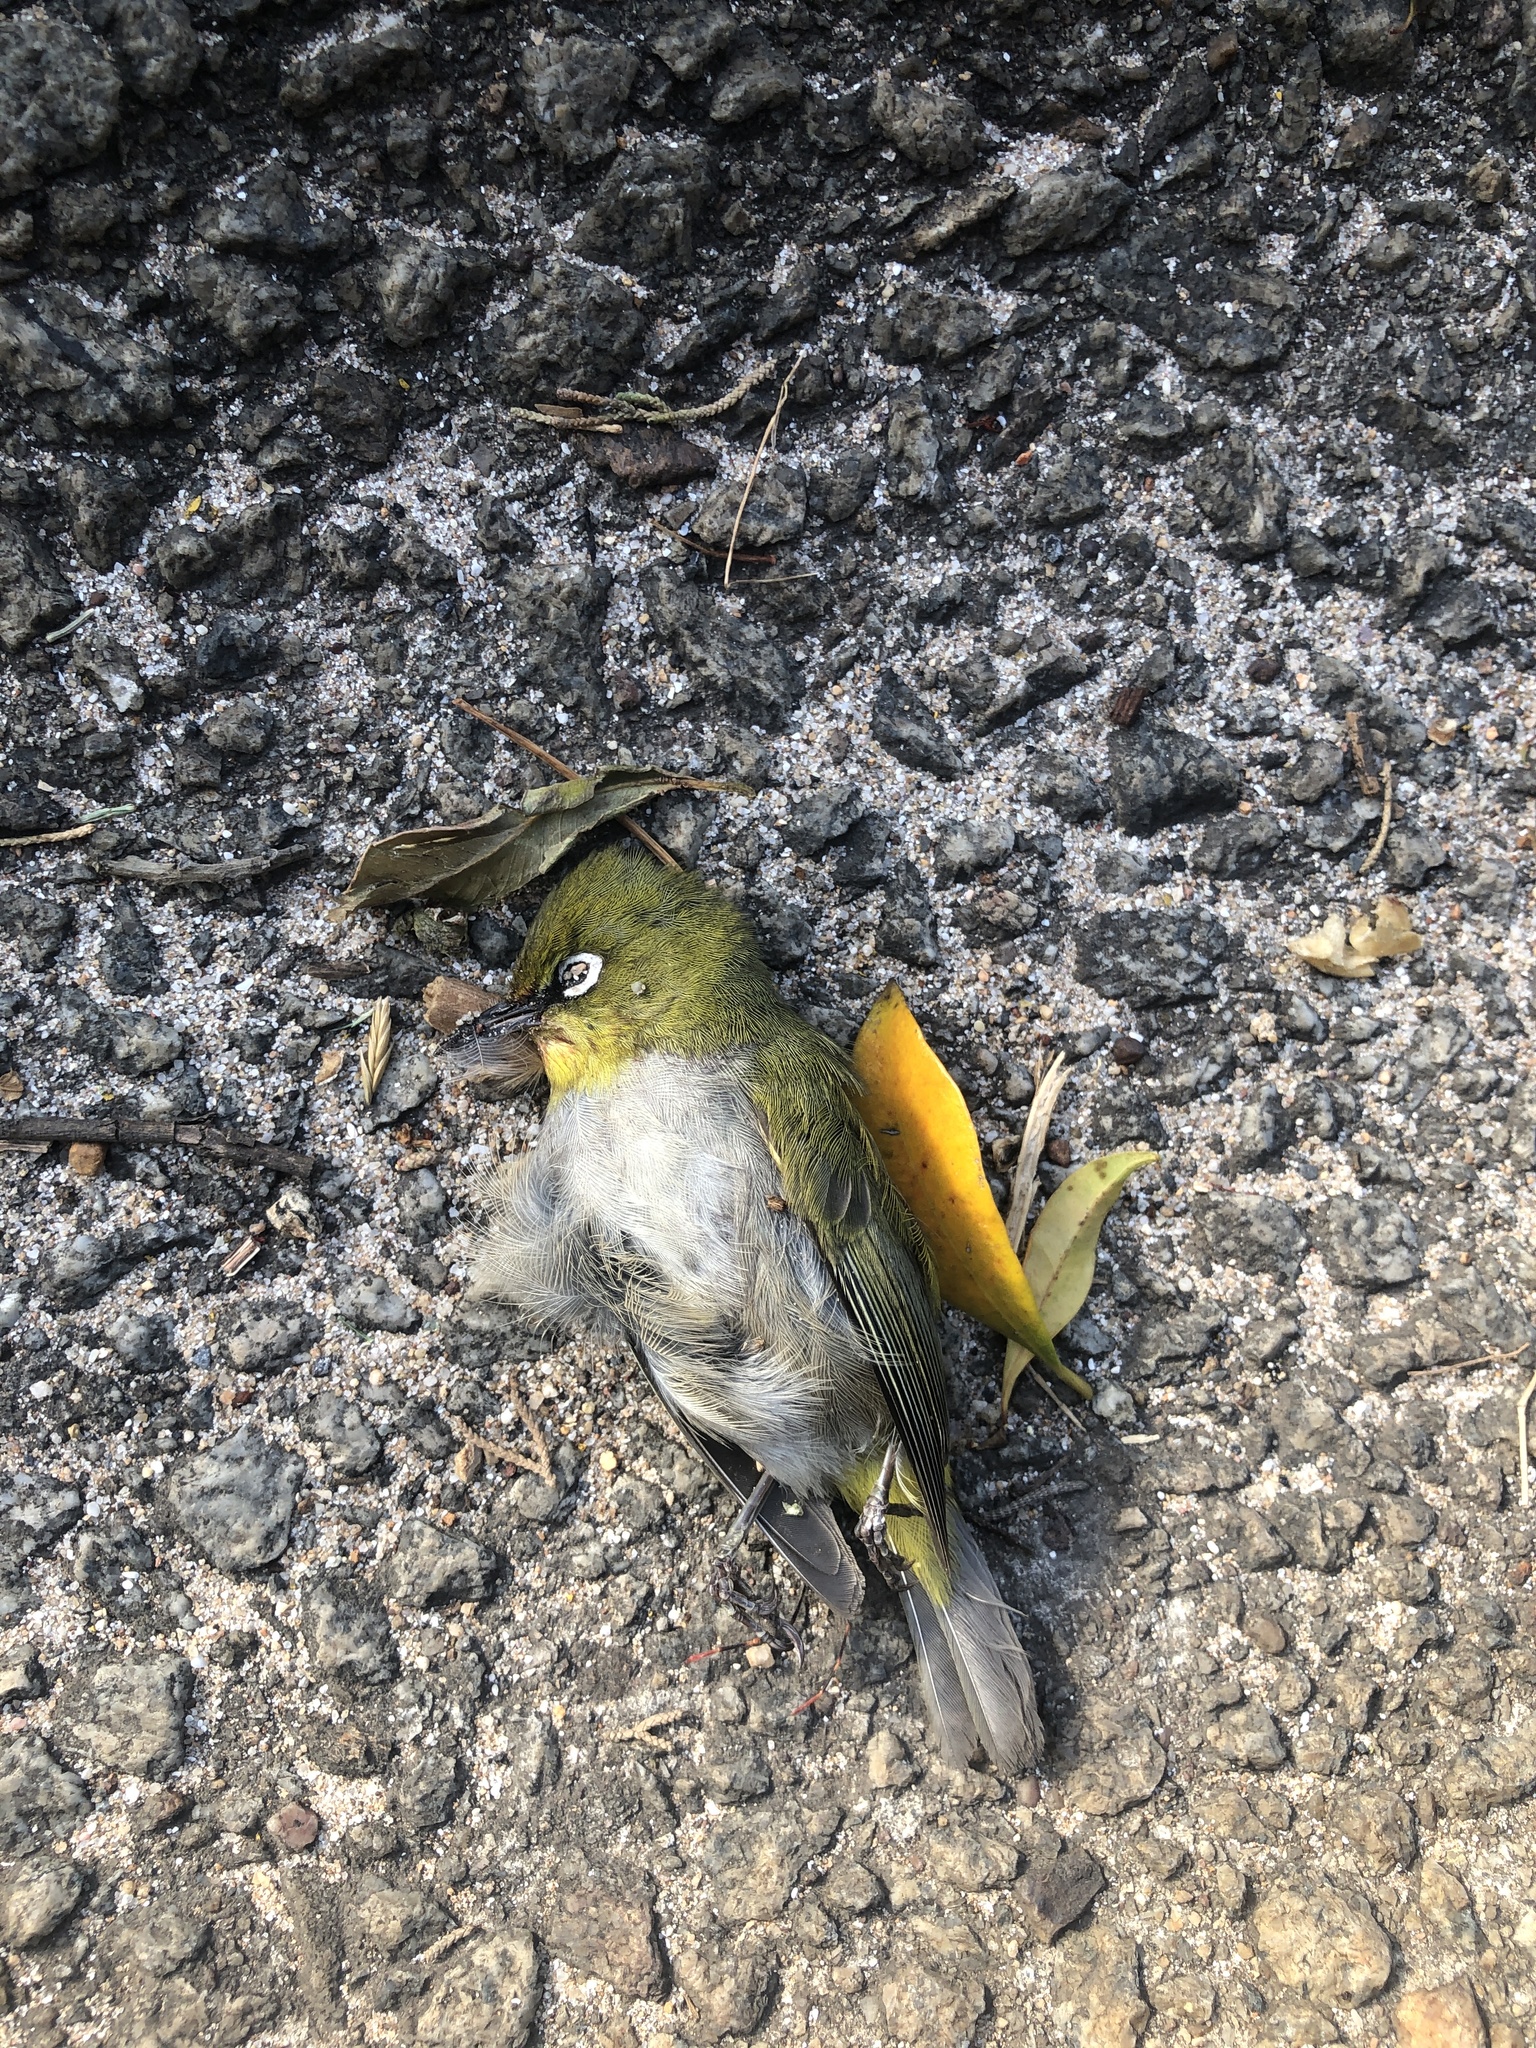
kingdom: Animalia
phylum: Chordata
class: Aves
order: Passeriformes
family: Zosteropidae
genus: Zosterops
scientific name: Zosterops virens
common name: Cape white-eye
